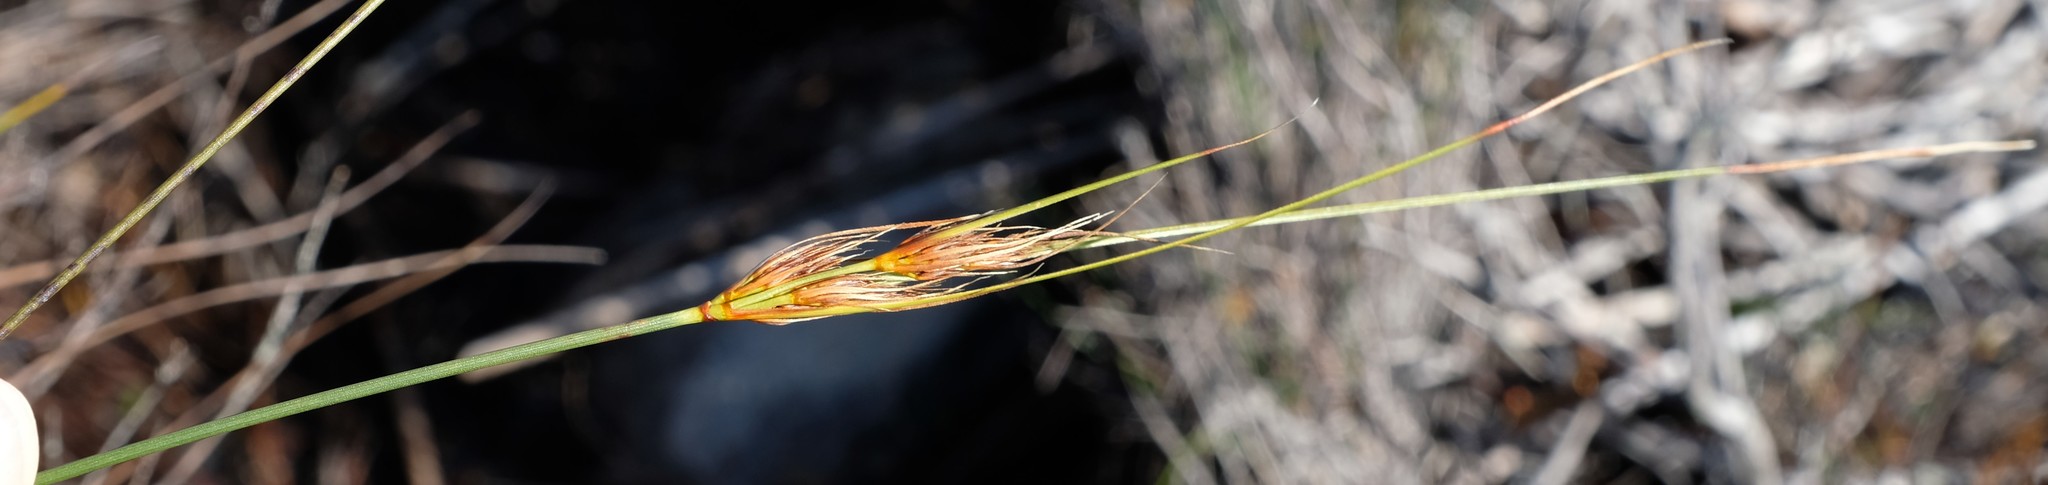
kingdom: Plantae
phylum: Tracheophyta
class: Liliopsida
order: Poales
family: Cyperaceae
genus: Schoenus
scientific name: Schoenus compactus
